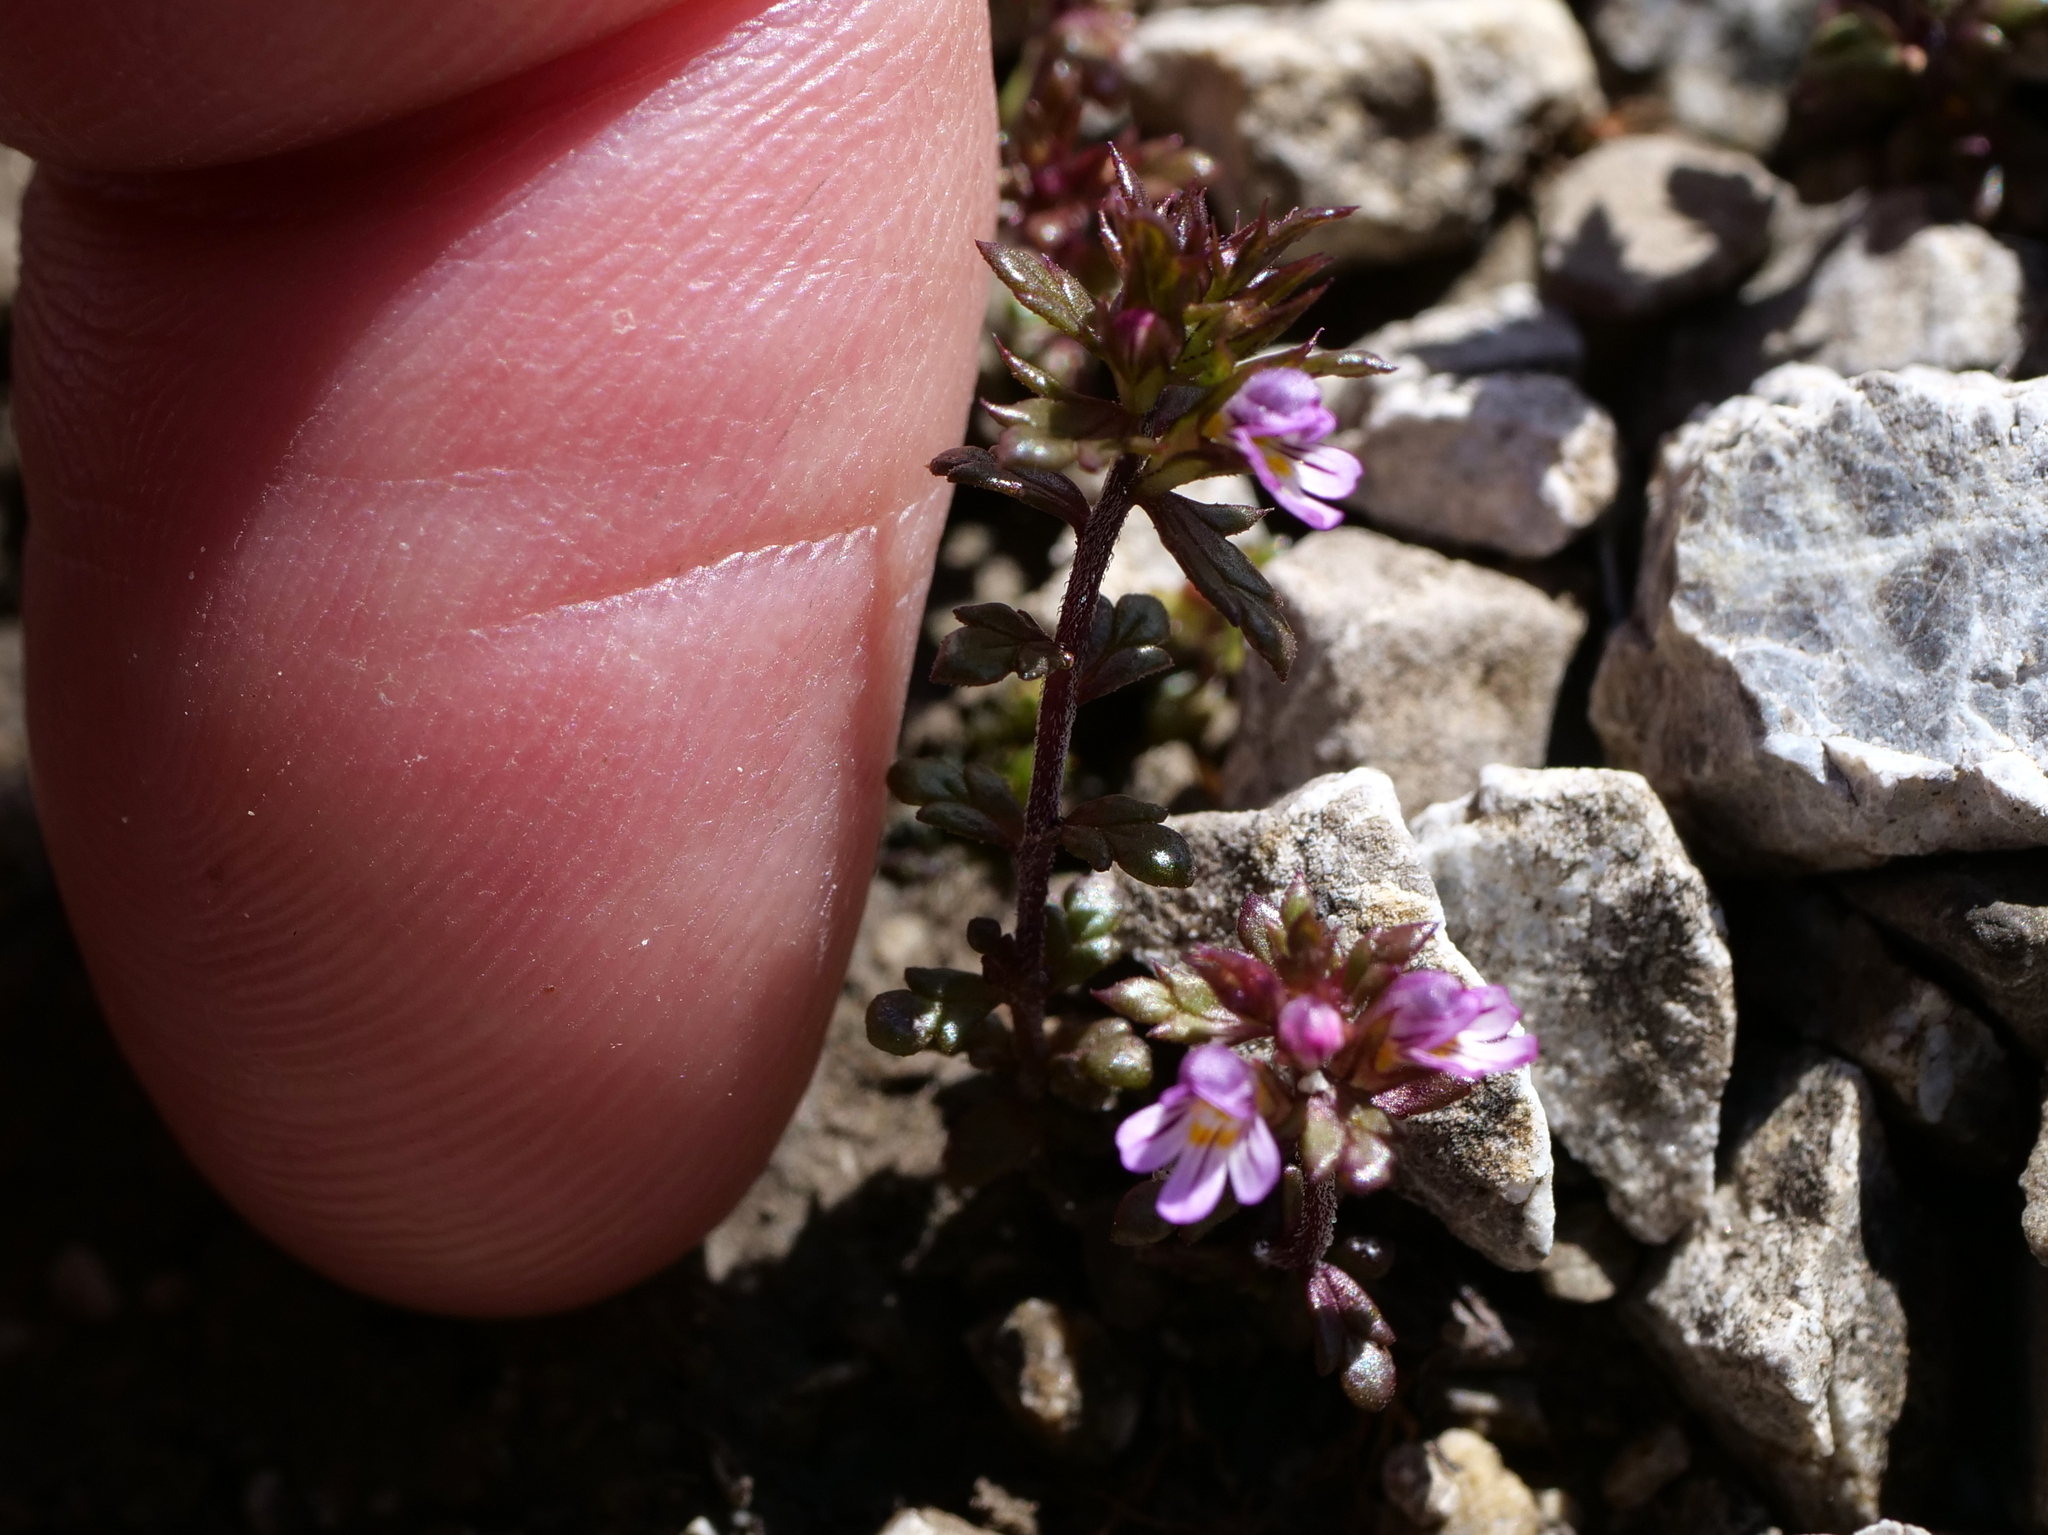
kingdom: Plantae
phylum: Tracheophyta
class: Magnoliopsida
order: Lamiales
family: Orobanchaceae
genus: Euphrasia
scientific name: Euphrasia salisburgensis
